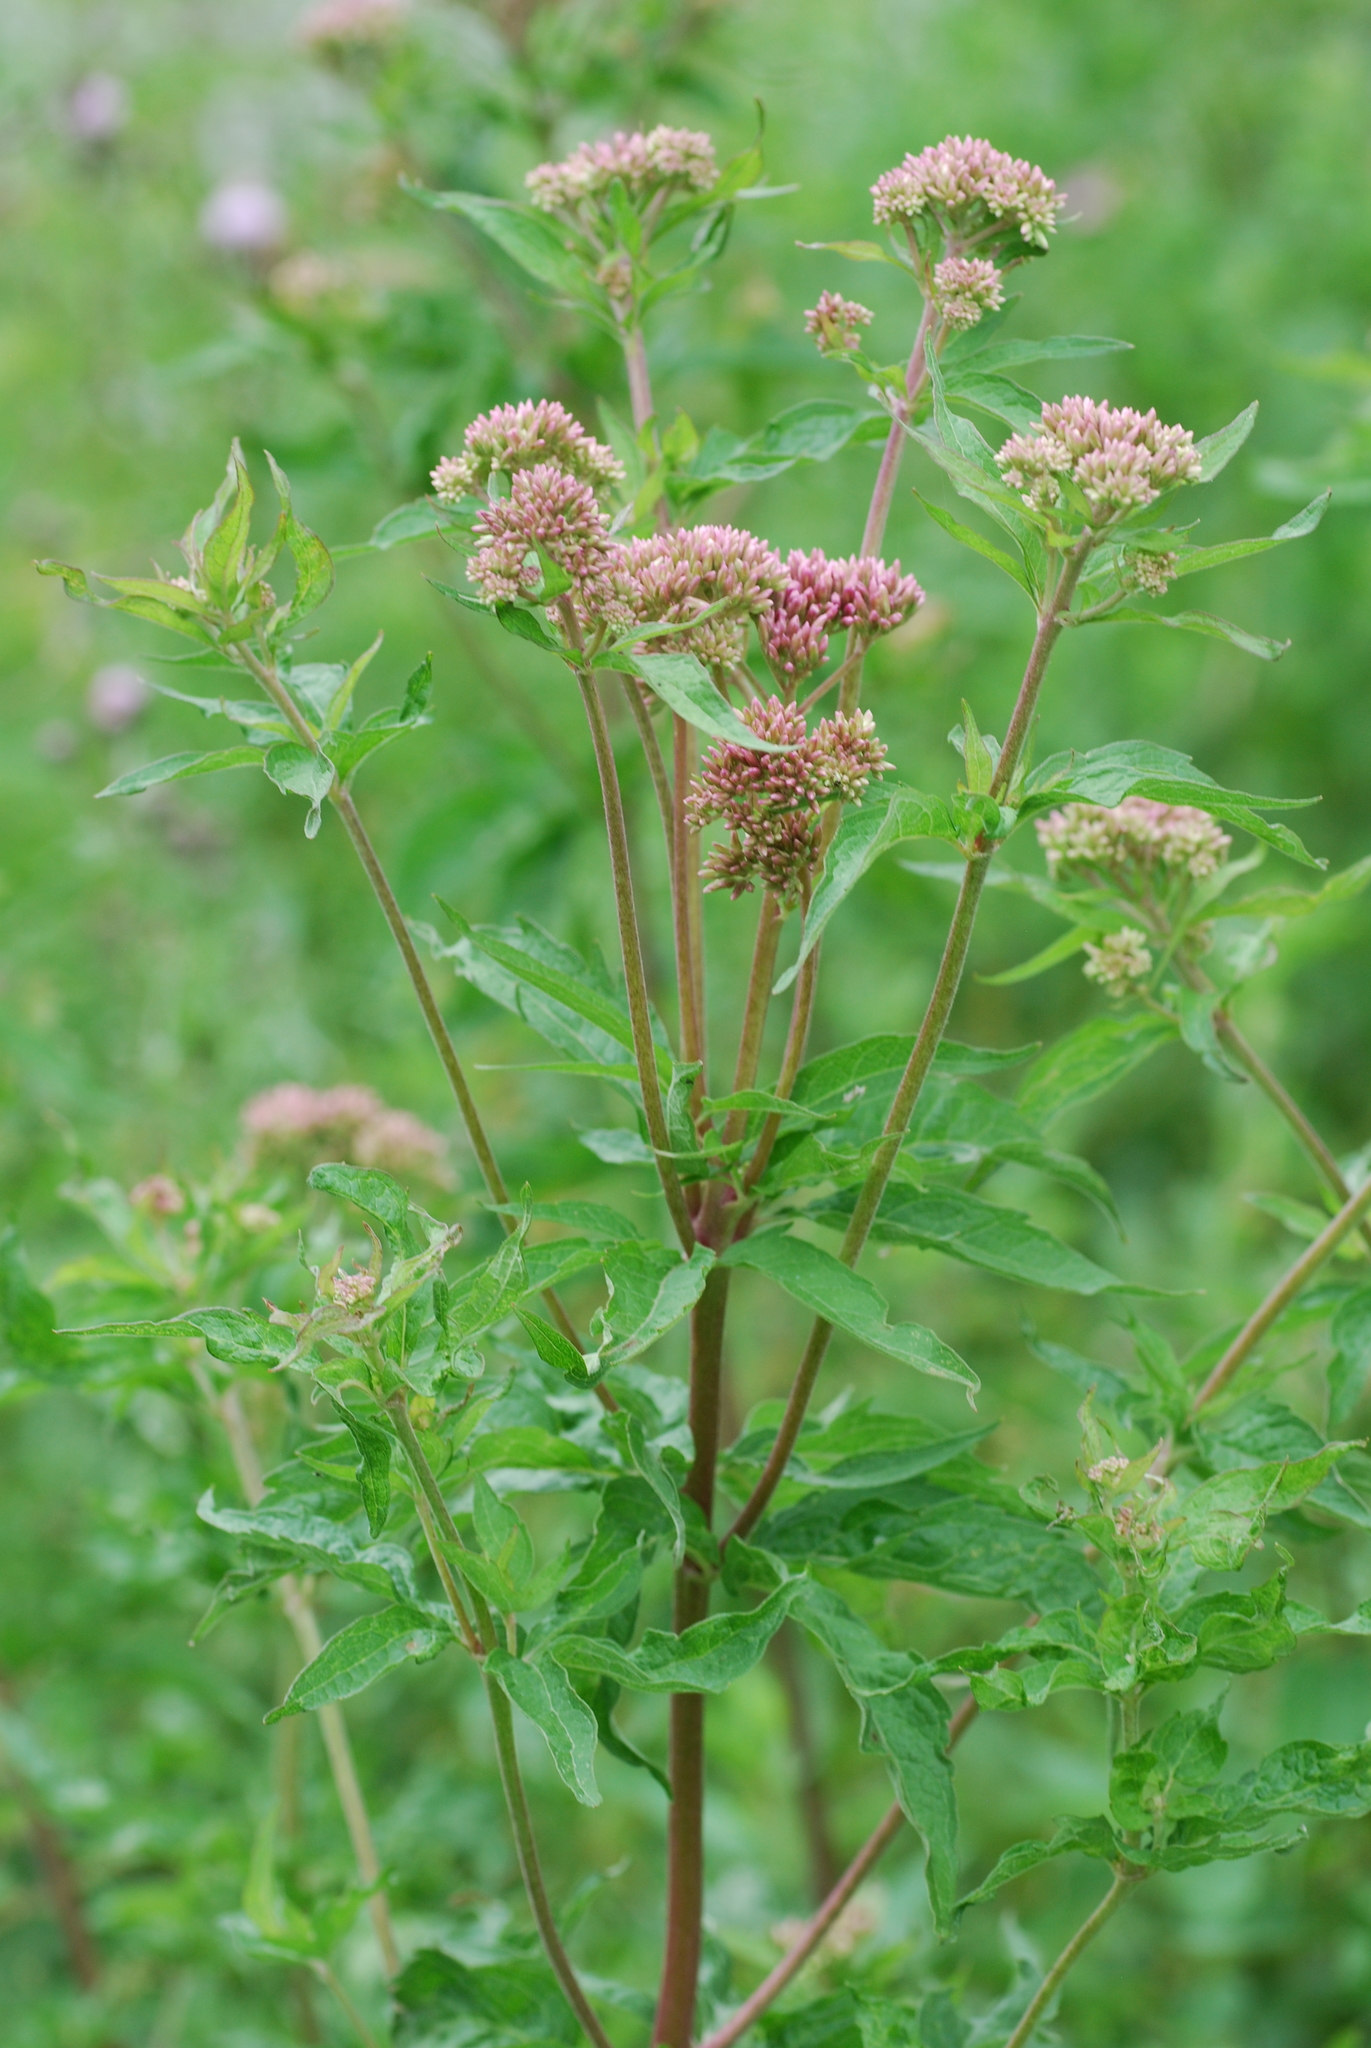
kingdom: Plantae
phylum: Tracheophyta
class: Magnoliopsida
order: Asterales
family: Asteraceae
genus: Eupatorium
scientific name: Eupatorium cannabinum
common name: Hemp-agrimony
